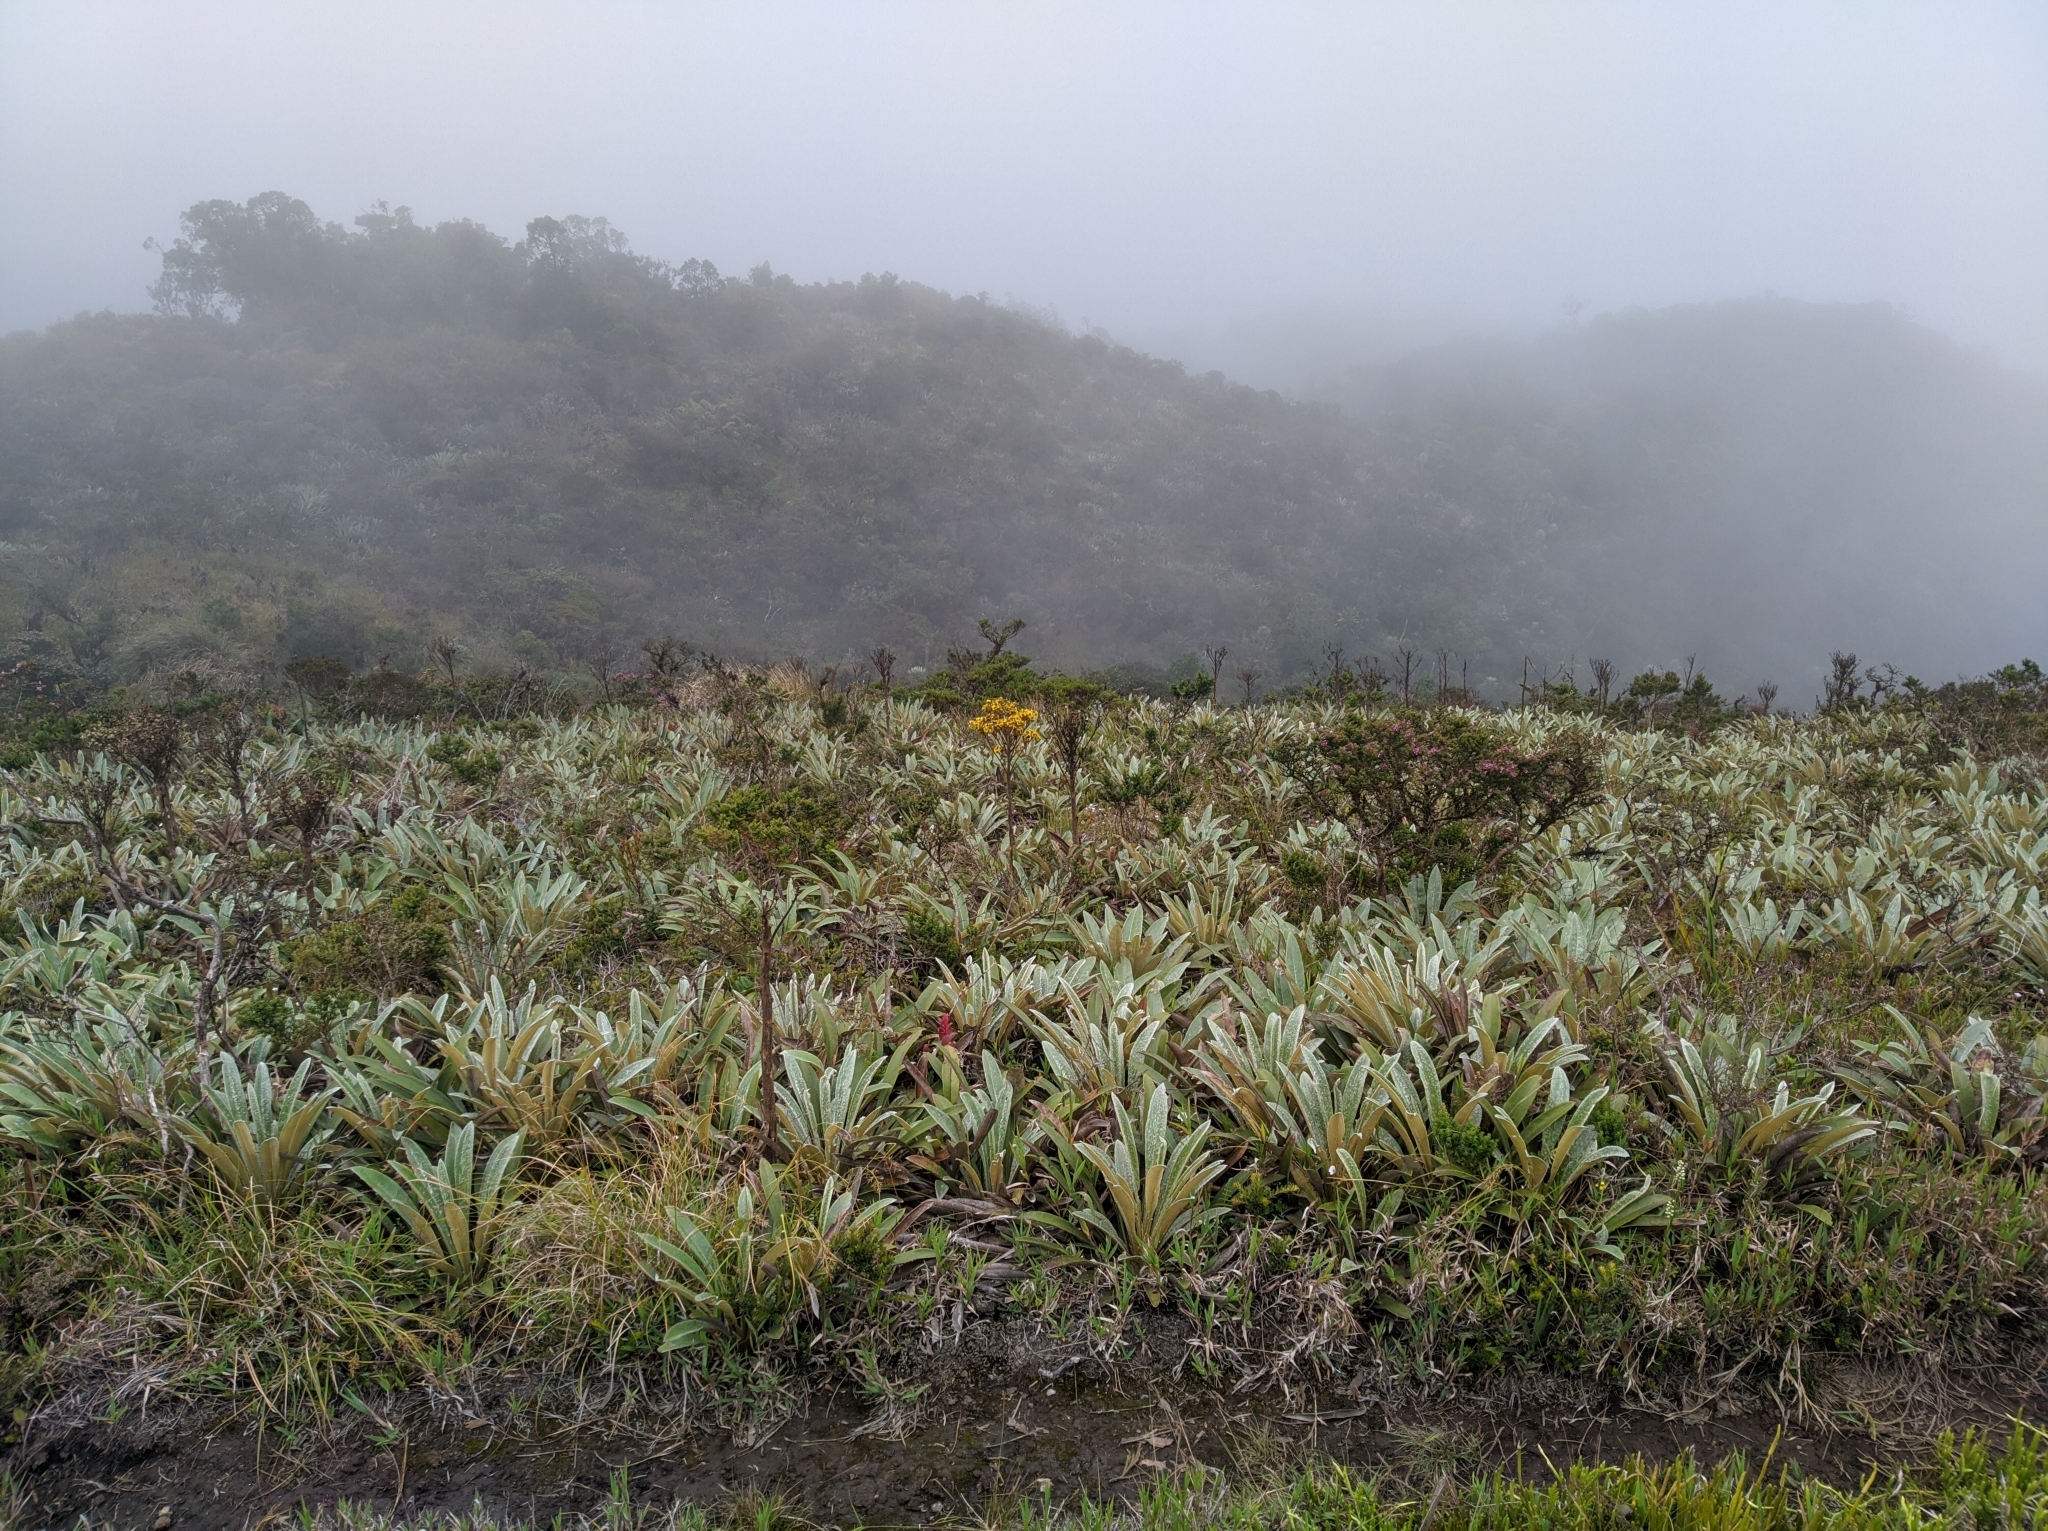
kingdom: Plantae
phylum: Tracheophyta
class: Magnoliopsida
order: Asterales
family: Asteraceae
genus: Espeletia
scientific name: Espeletia bracteosa
